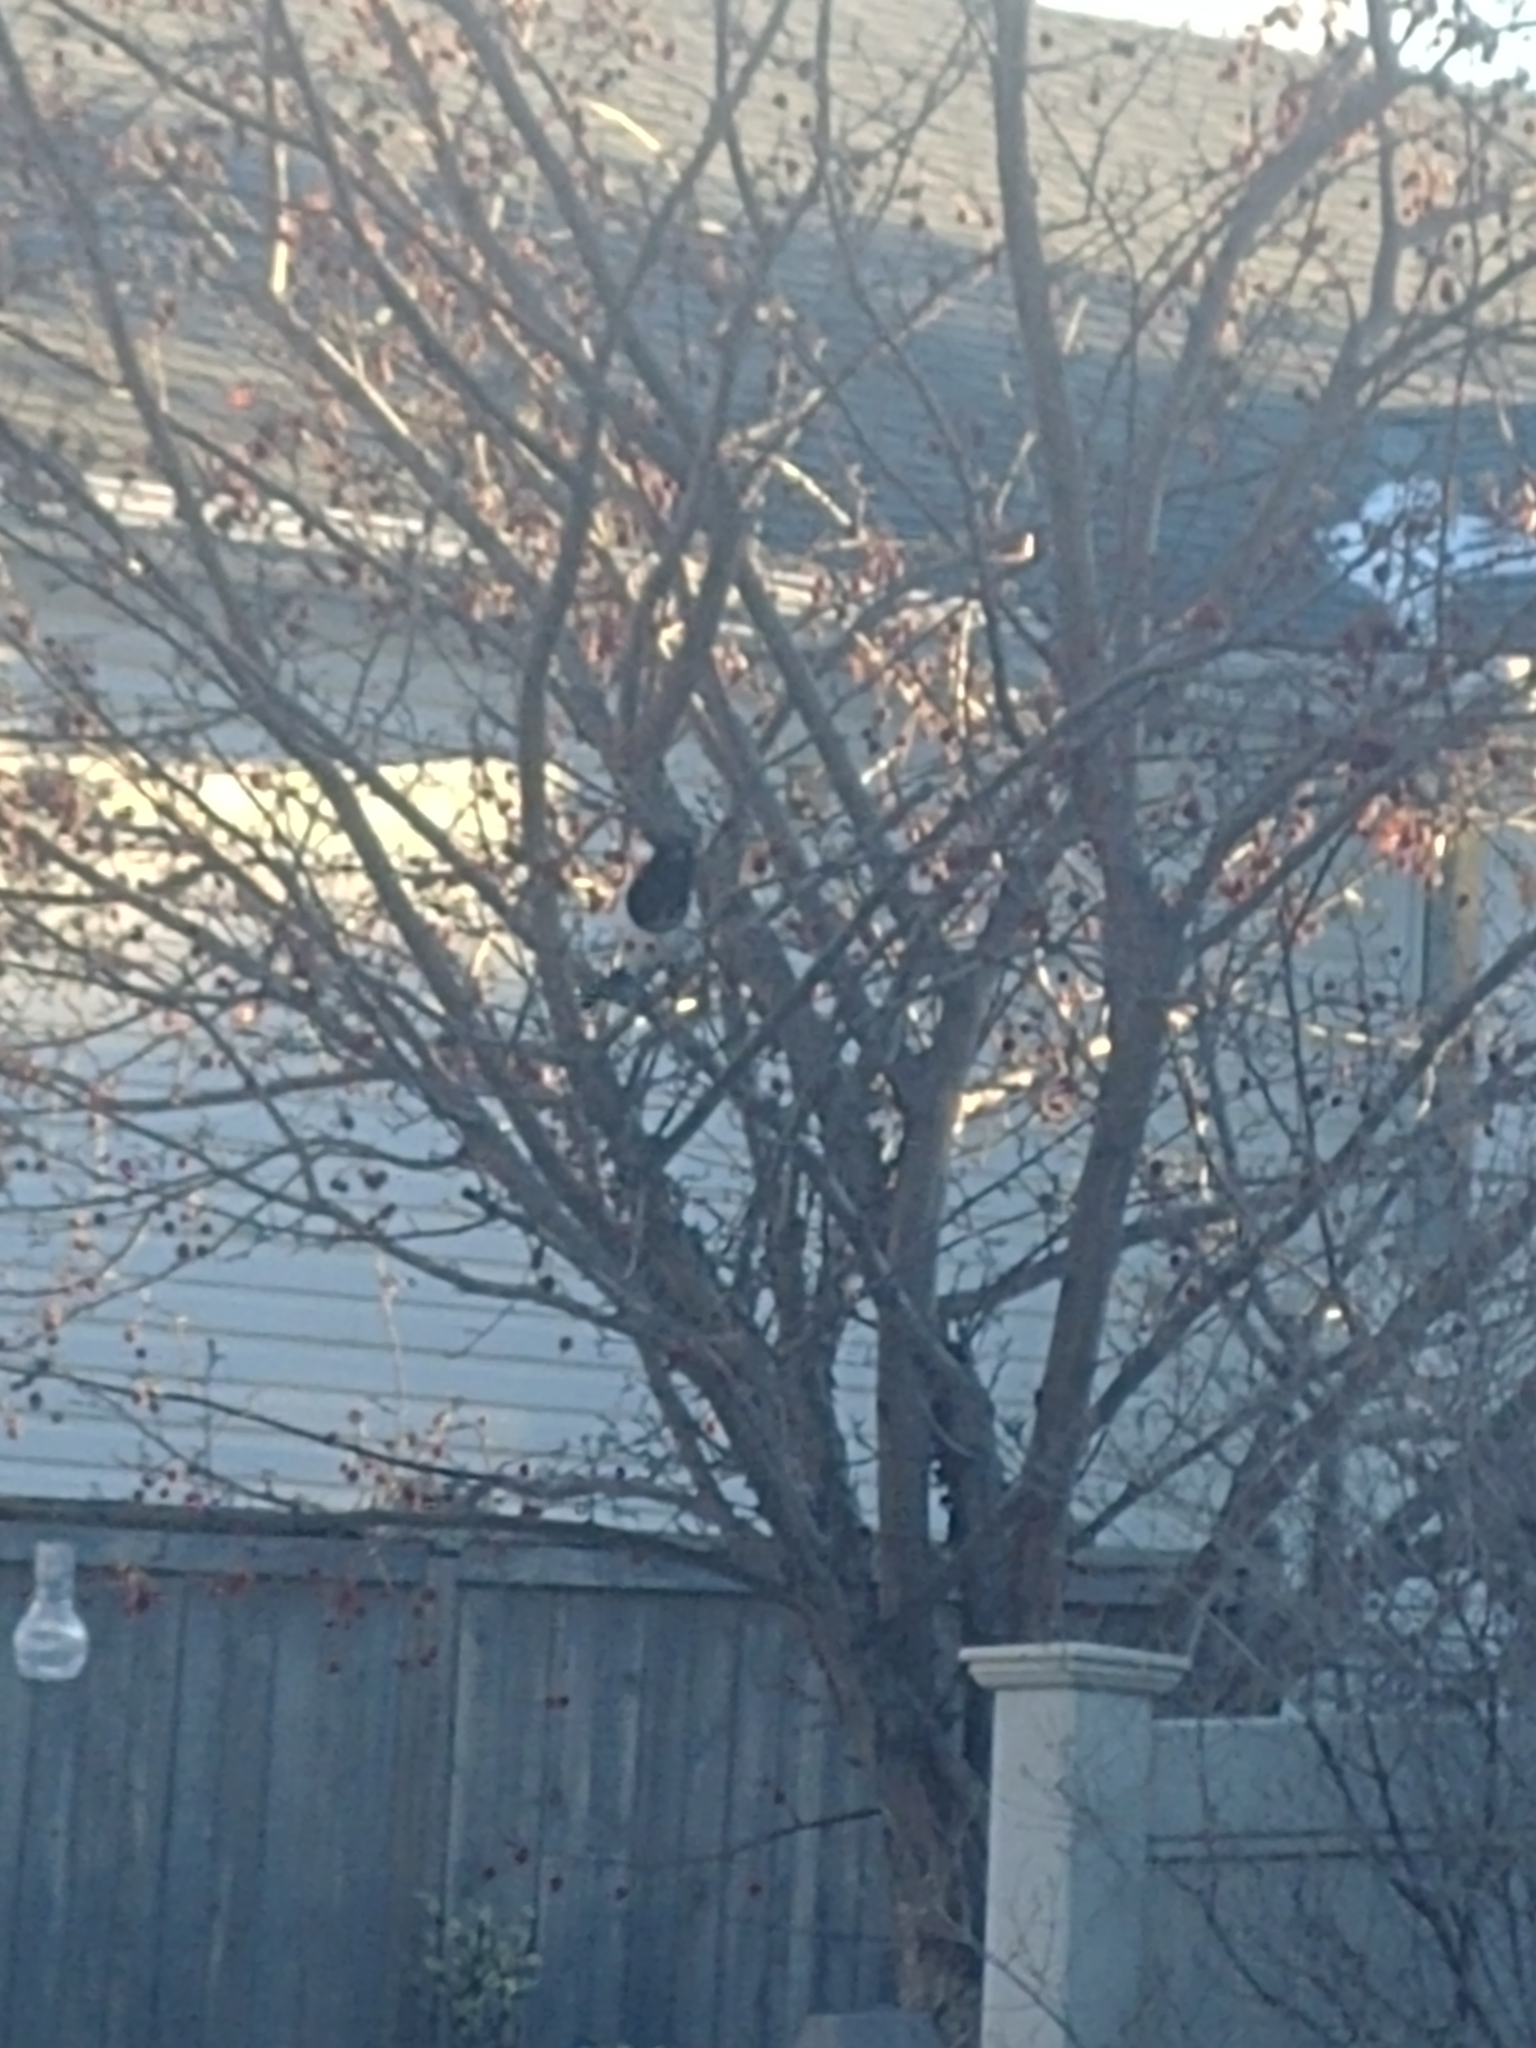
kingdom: Animalia
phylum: Chordata
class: Aves
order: Passeriformes
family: Corvidae
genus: Pica
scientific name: Pica hudsonia
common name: Black-billed magpie
